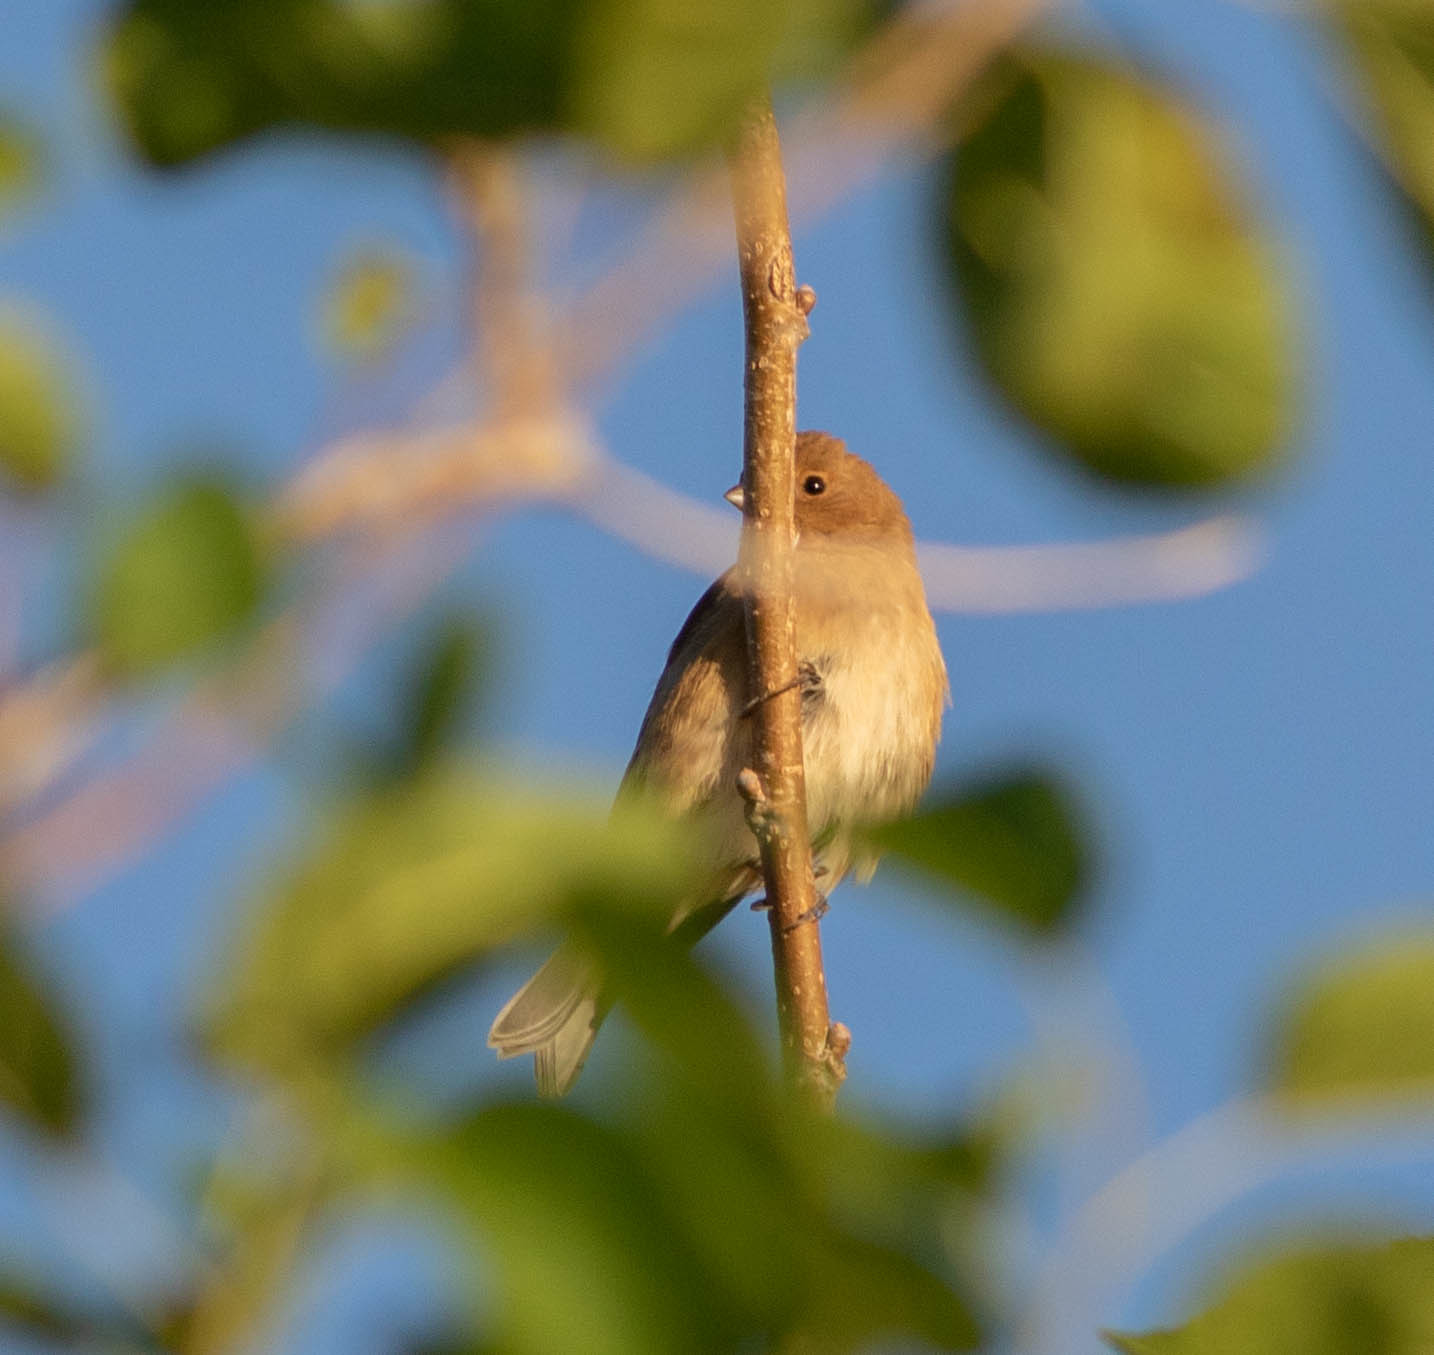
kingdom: Animalia
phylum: Chordata
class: Aves
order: Passeriformes
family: Cardinalidae
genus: Passerina
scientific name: Passerina cyanea
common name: Indigo bunting
